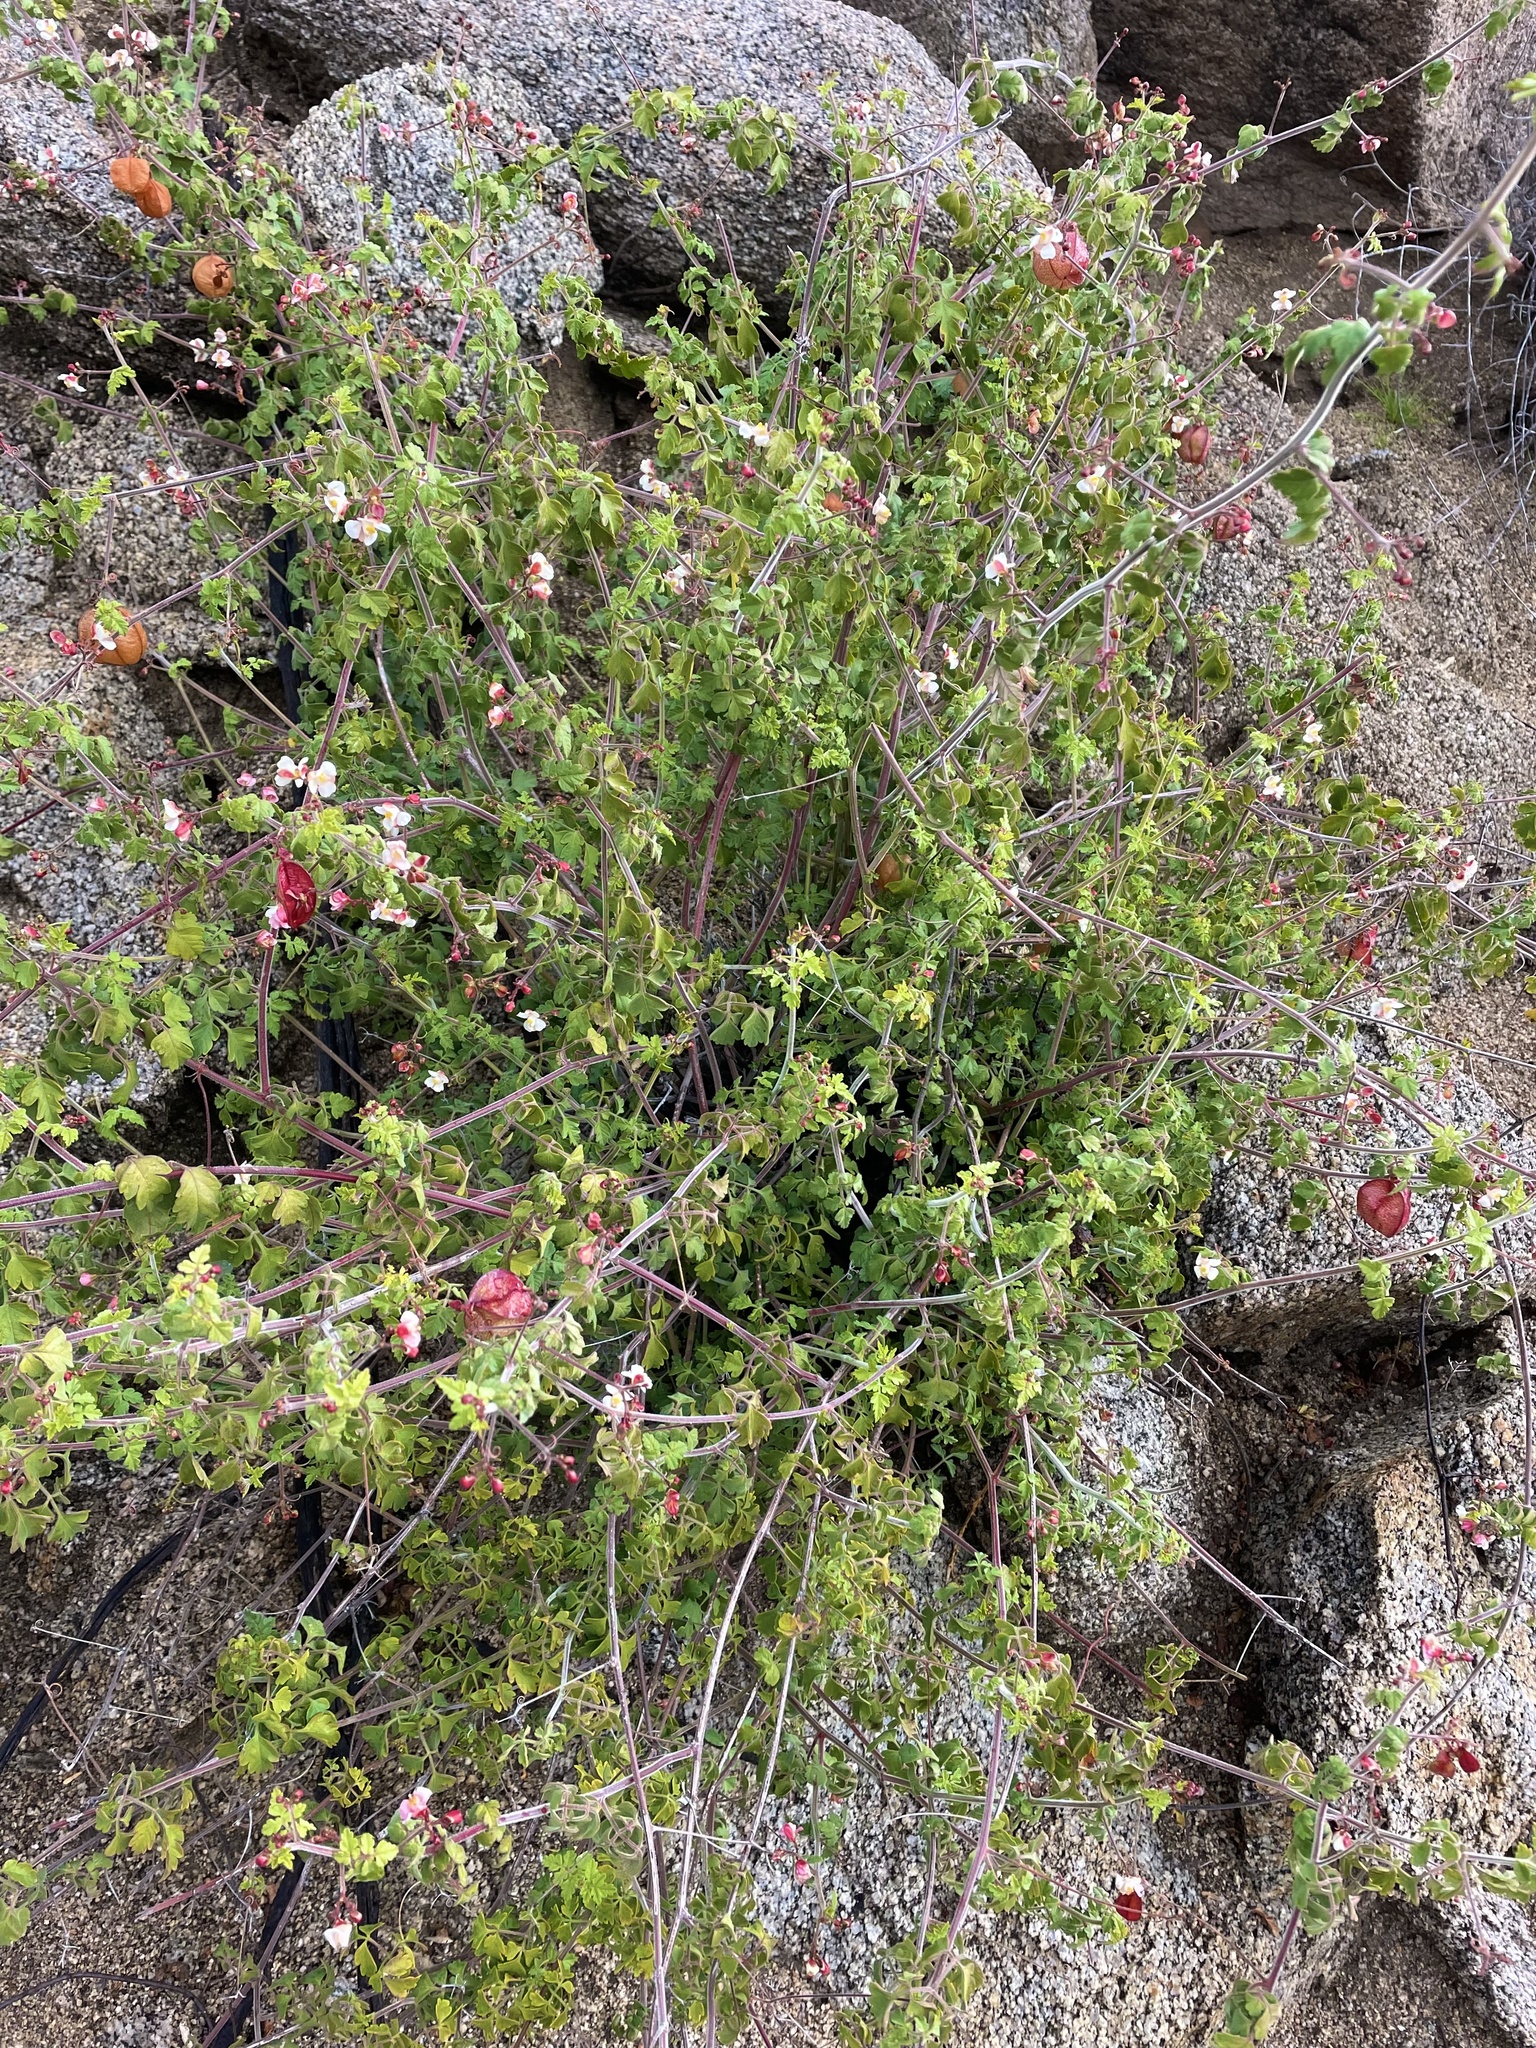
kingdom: Plantae
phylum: Tracheophyta
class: Magnoliopsida
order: Sapindales
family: Sapindaceae
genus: Cardiospermum
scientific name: Cardiospermum corindum
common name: Faux persil
